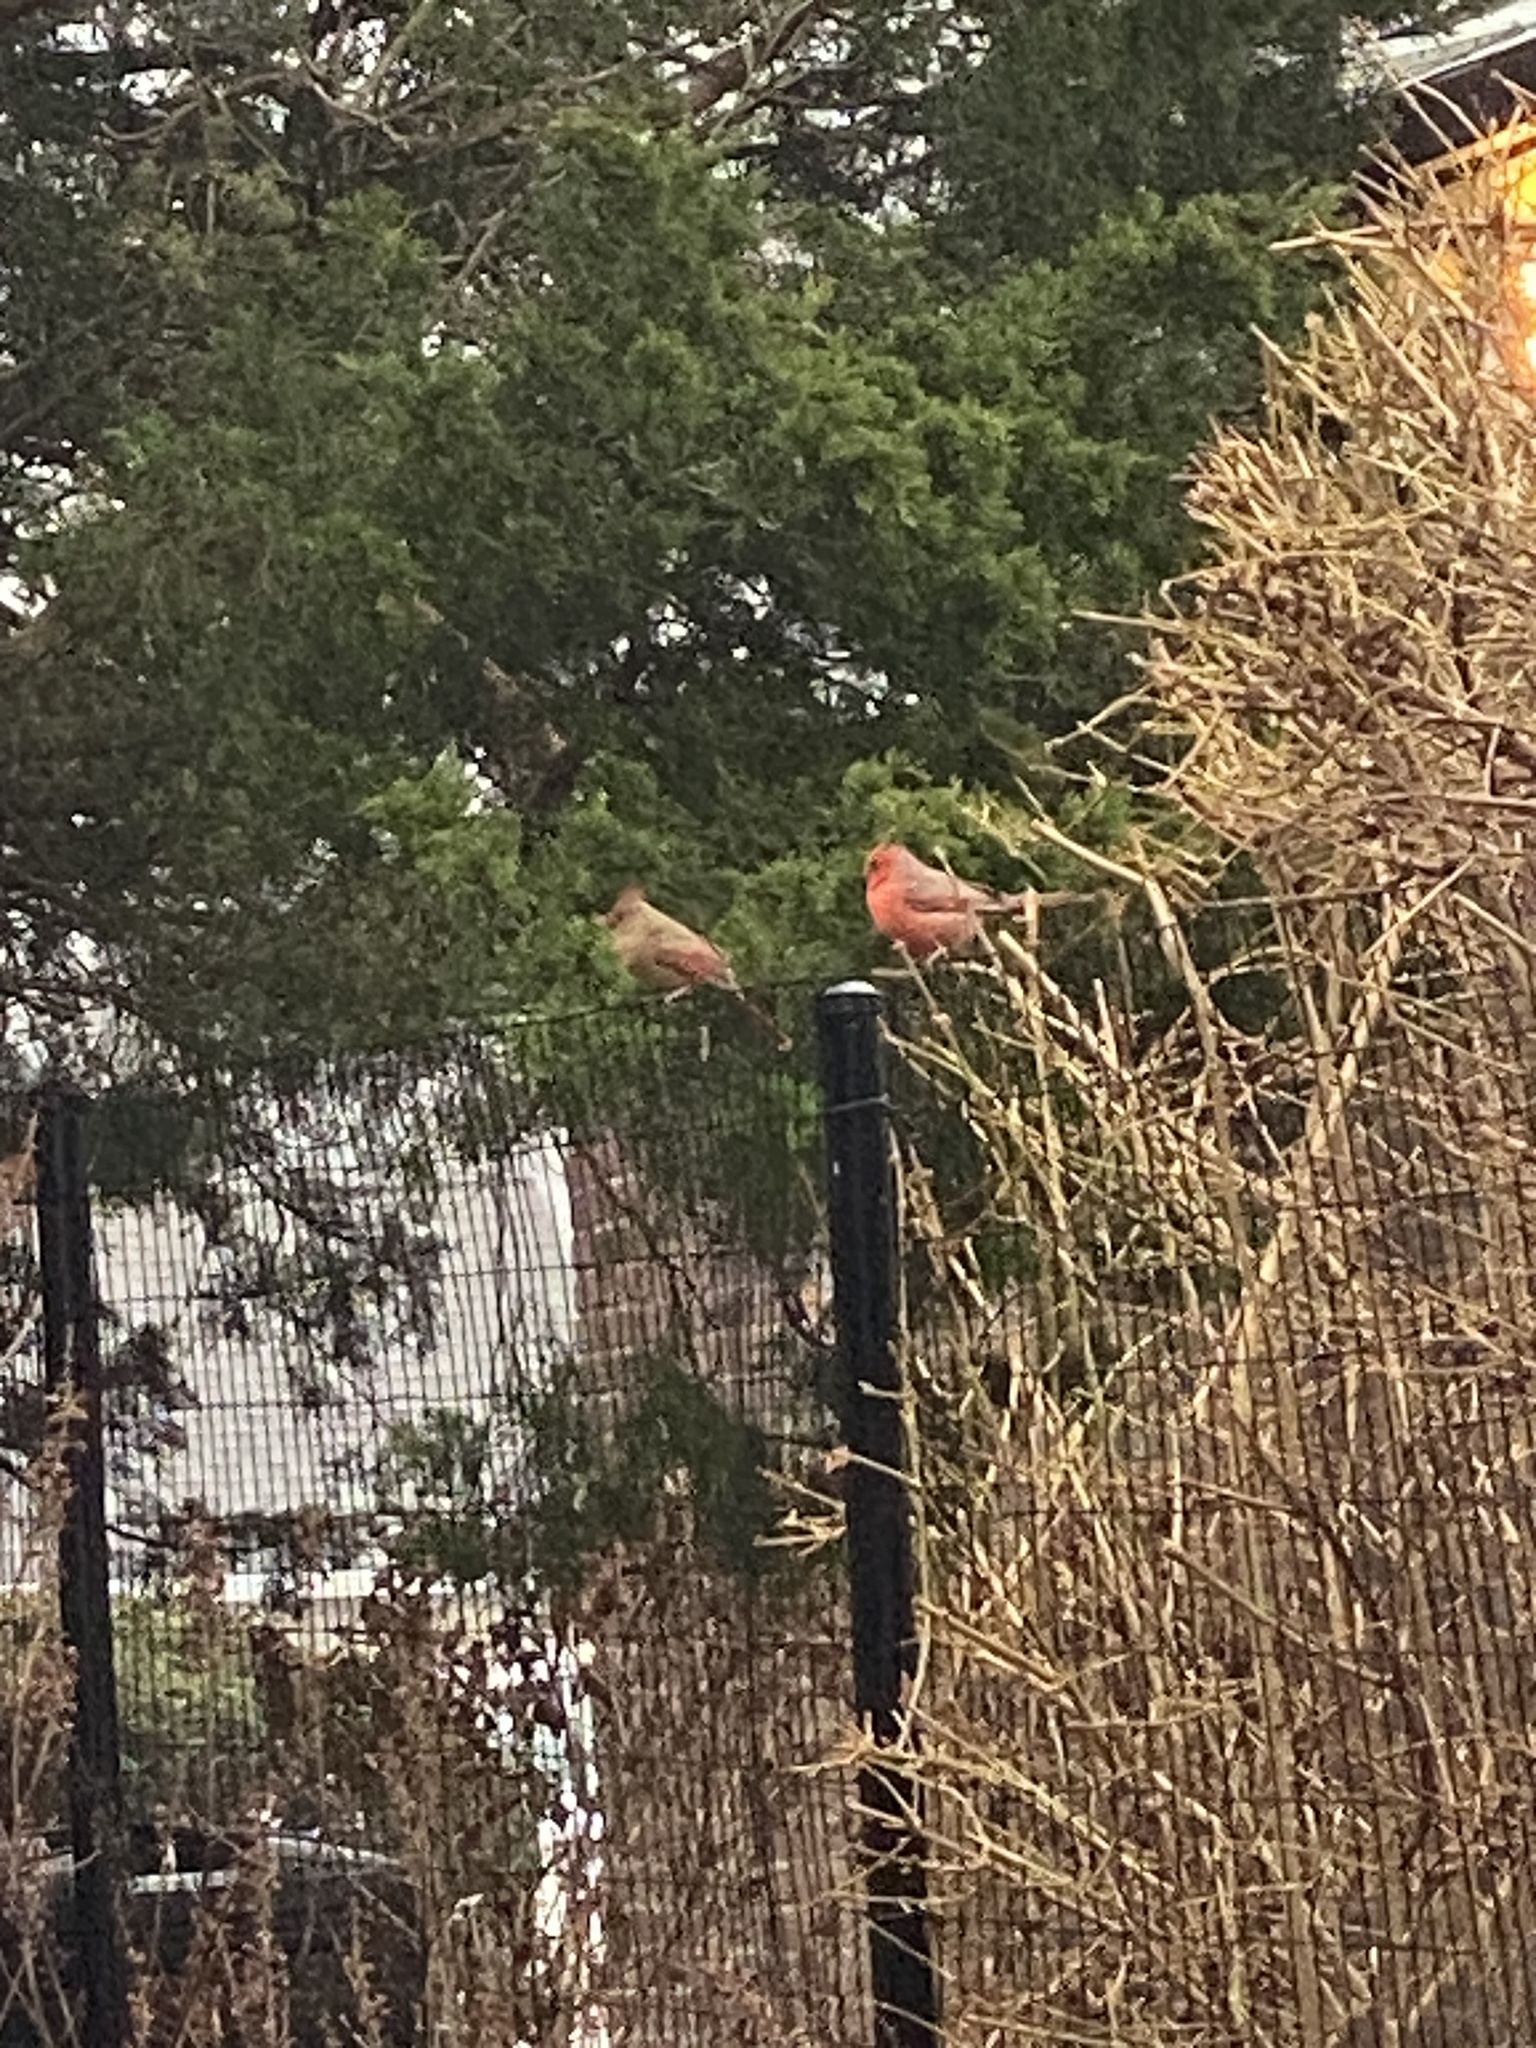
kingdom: Animalia
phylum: Chordata
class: Aves
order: Passeriformes
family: Cardinalidae
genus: Cardinalis
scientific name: Cardinalis cardinalis
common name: Northern cardinal
